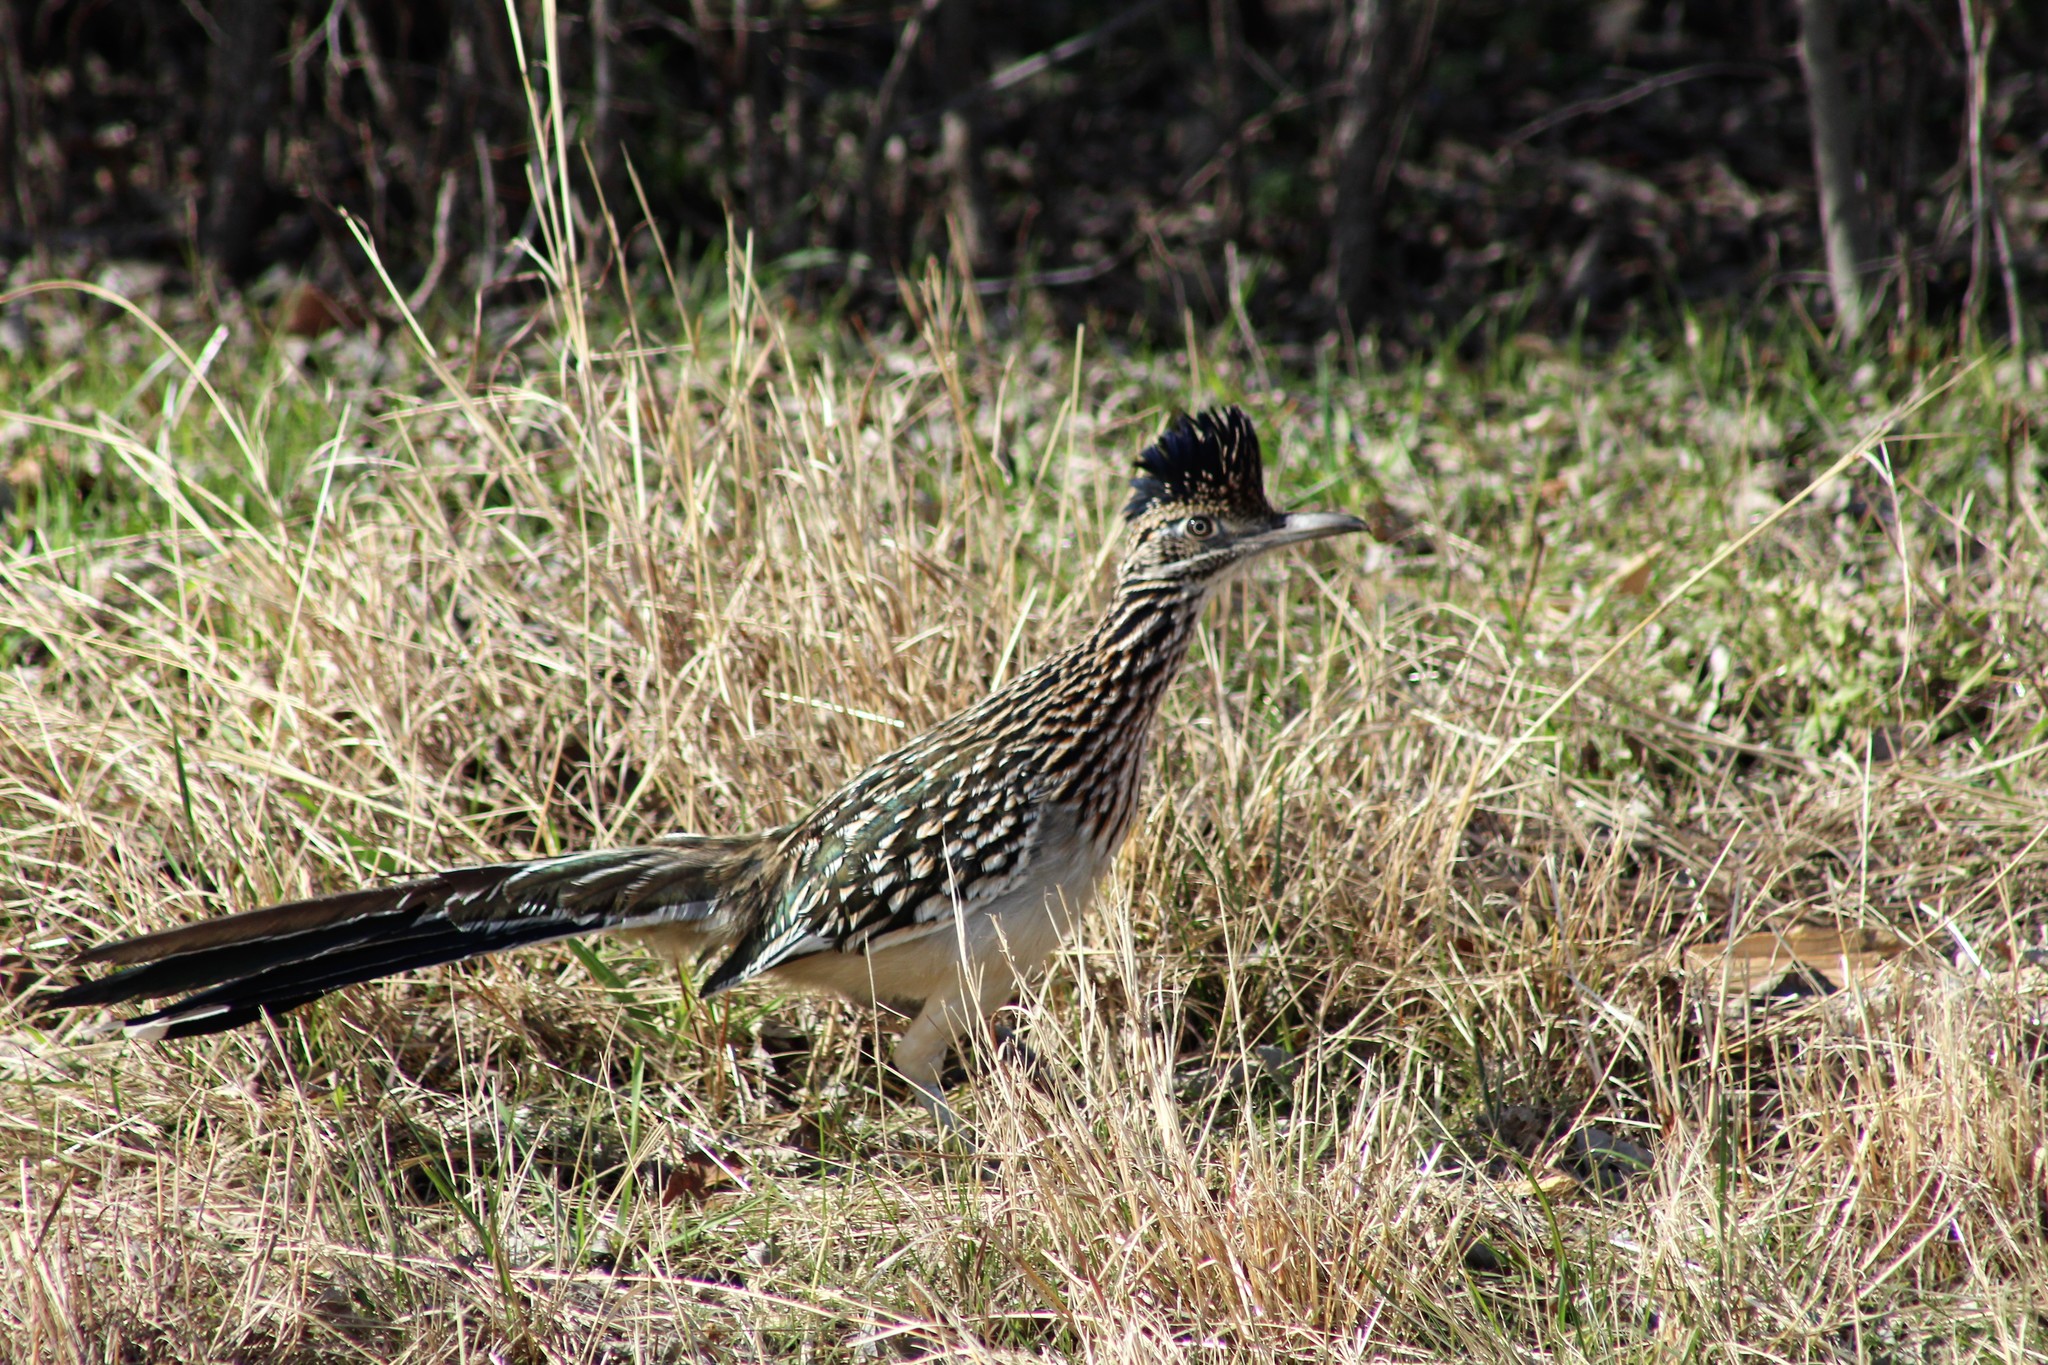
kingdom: Animalia
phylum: Chordata
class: Aves
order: Cuculiformes
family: Cuculidae
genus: Geococcyx
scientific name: Geococcyx californianus
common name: Greater roadrunner
